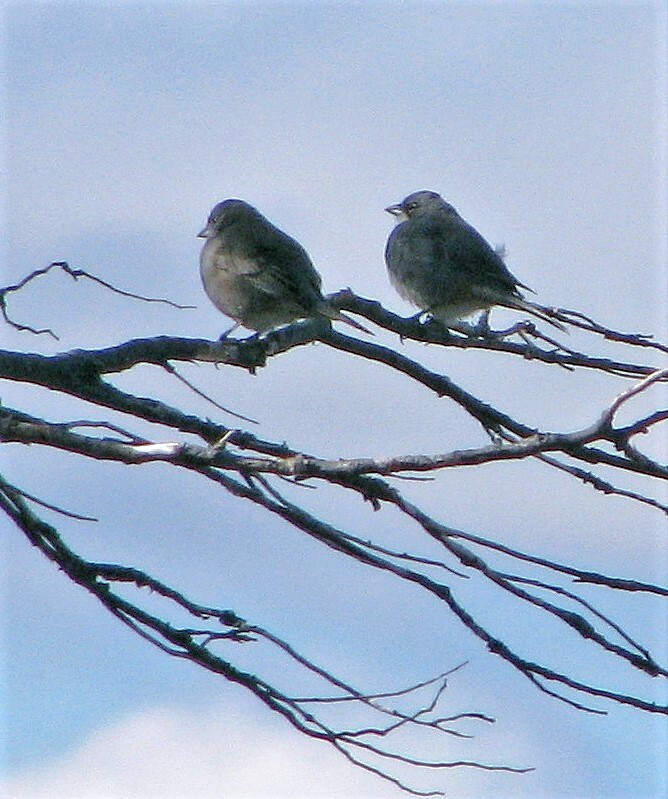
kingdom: Animalia
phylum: Chordata
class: Aves
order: Passeriformes
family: Thraupidae
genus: Diuca
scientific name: Diuca diuca
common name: Common diuca finch
